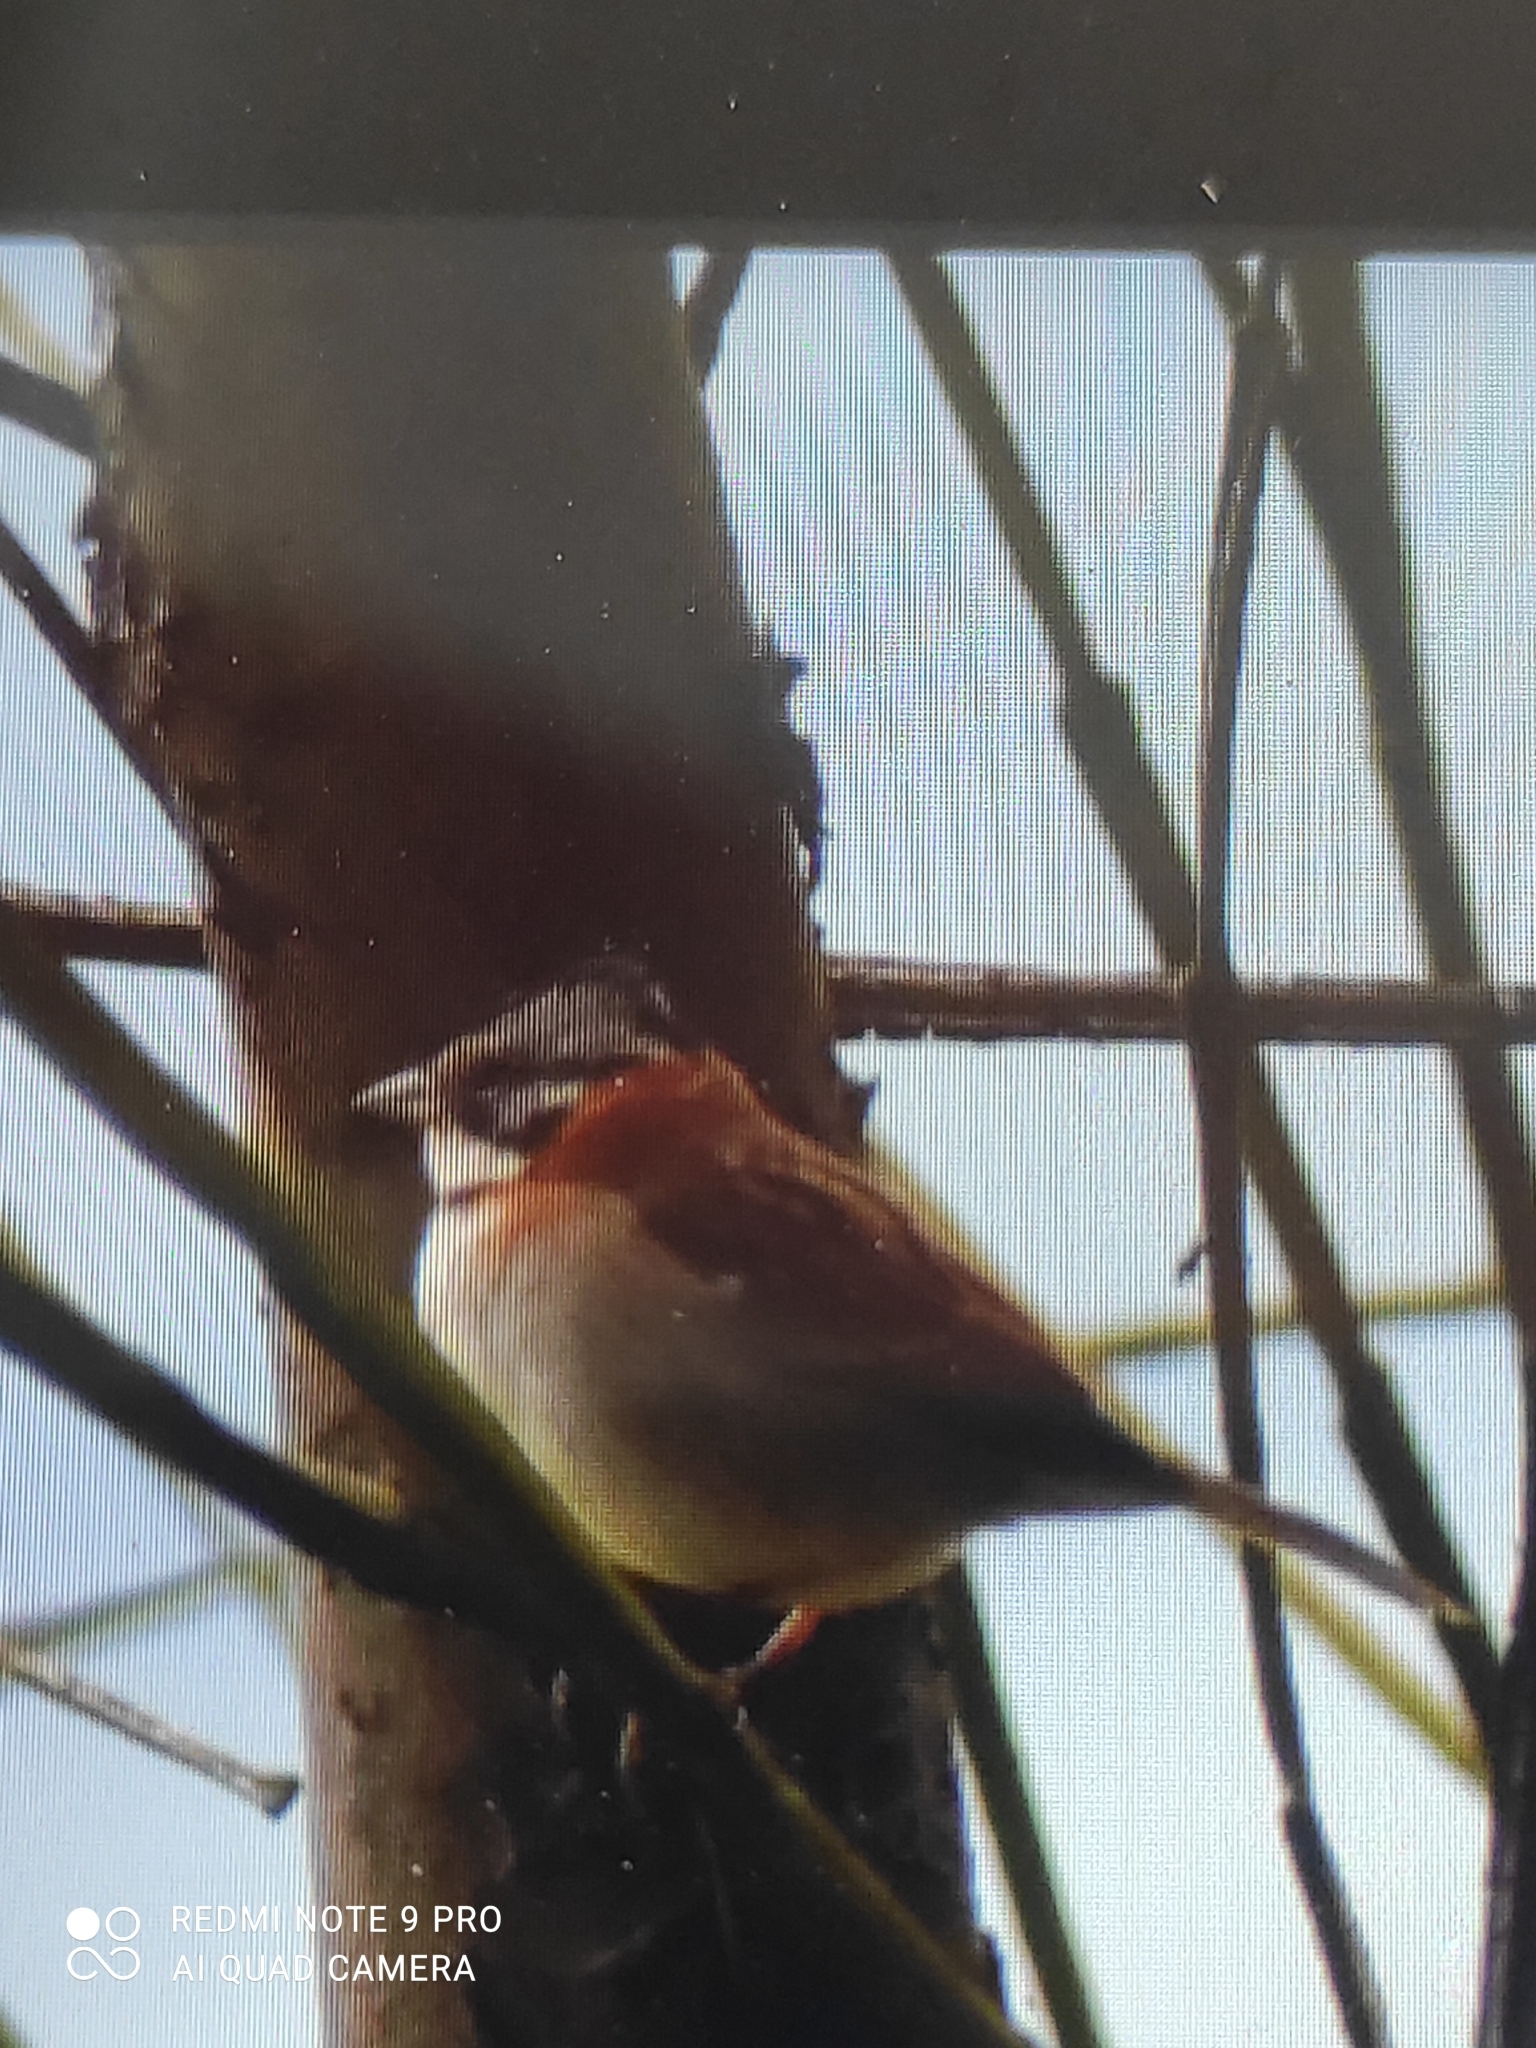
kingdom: Animalia
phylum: Chordata
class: Aves
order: Passeriformes
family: Passerellidae
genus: Zonotrichia
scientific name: Zonotrichia capensis
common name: Rufous-collared sparrow
